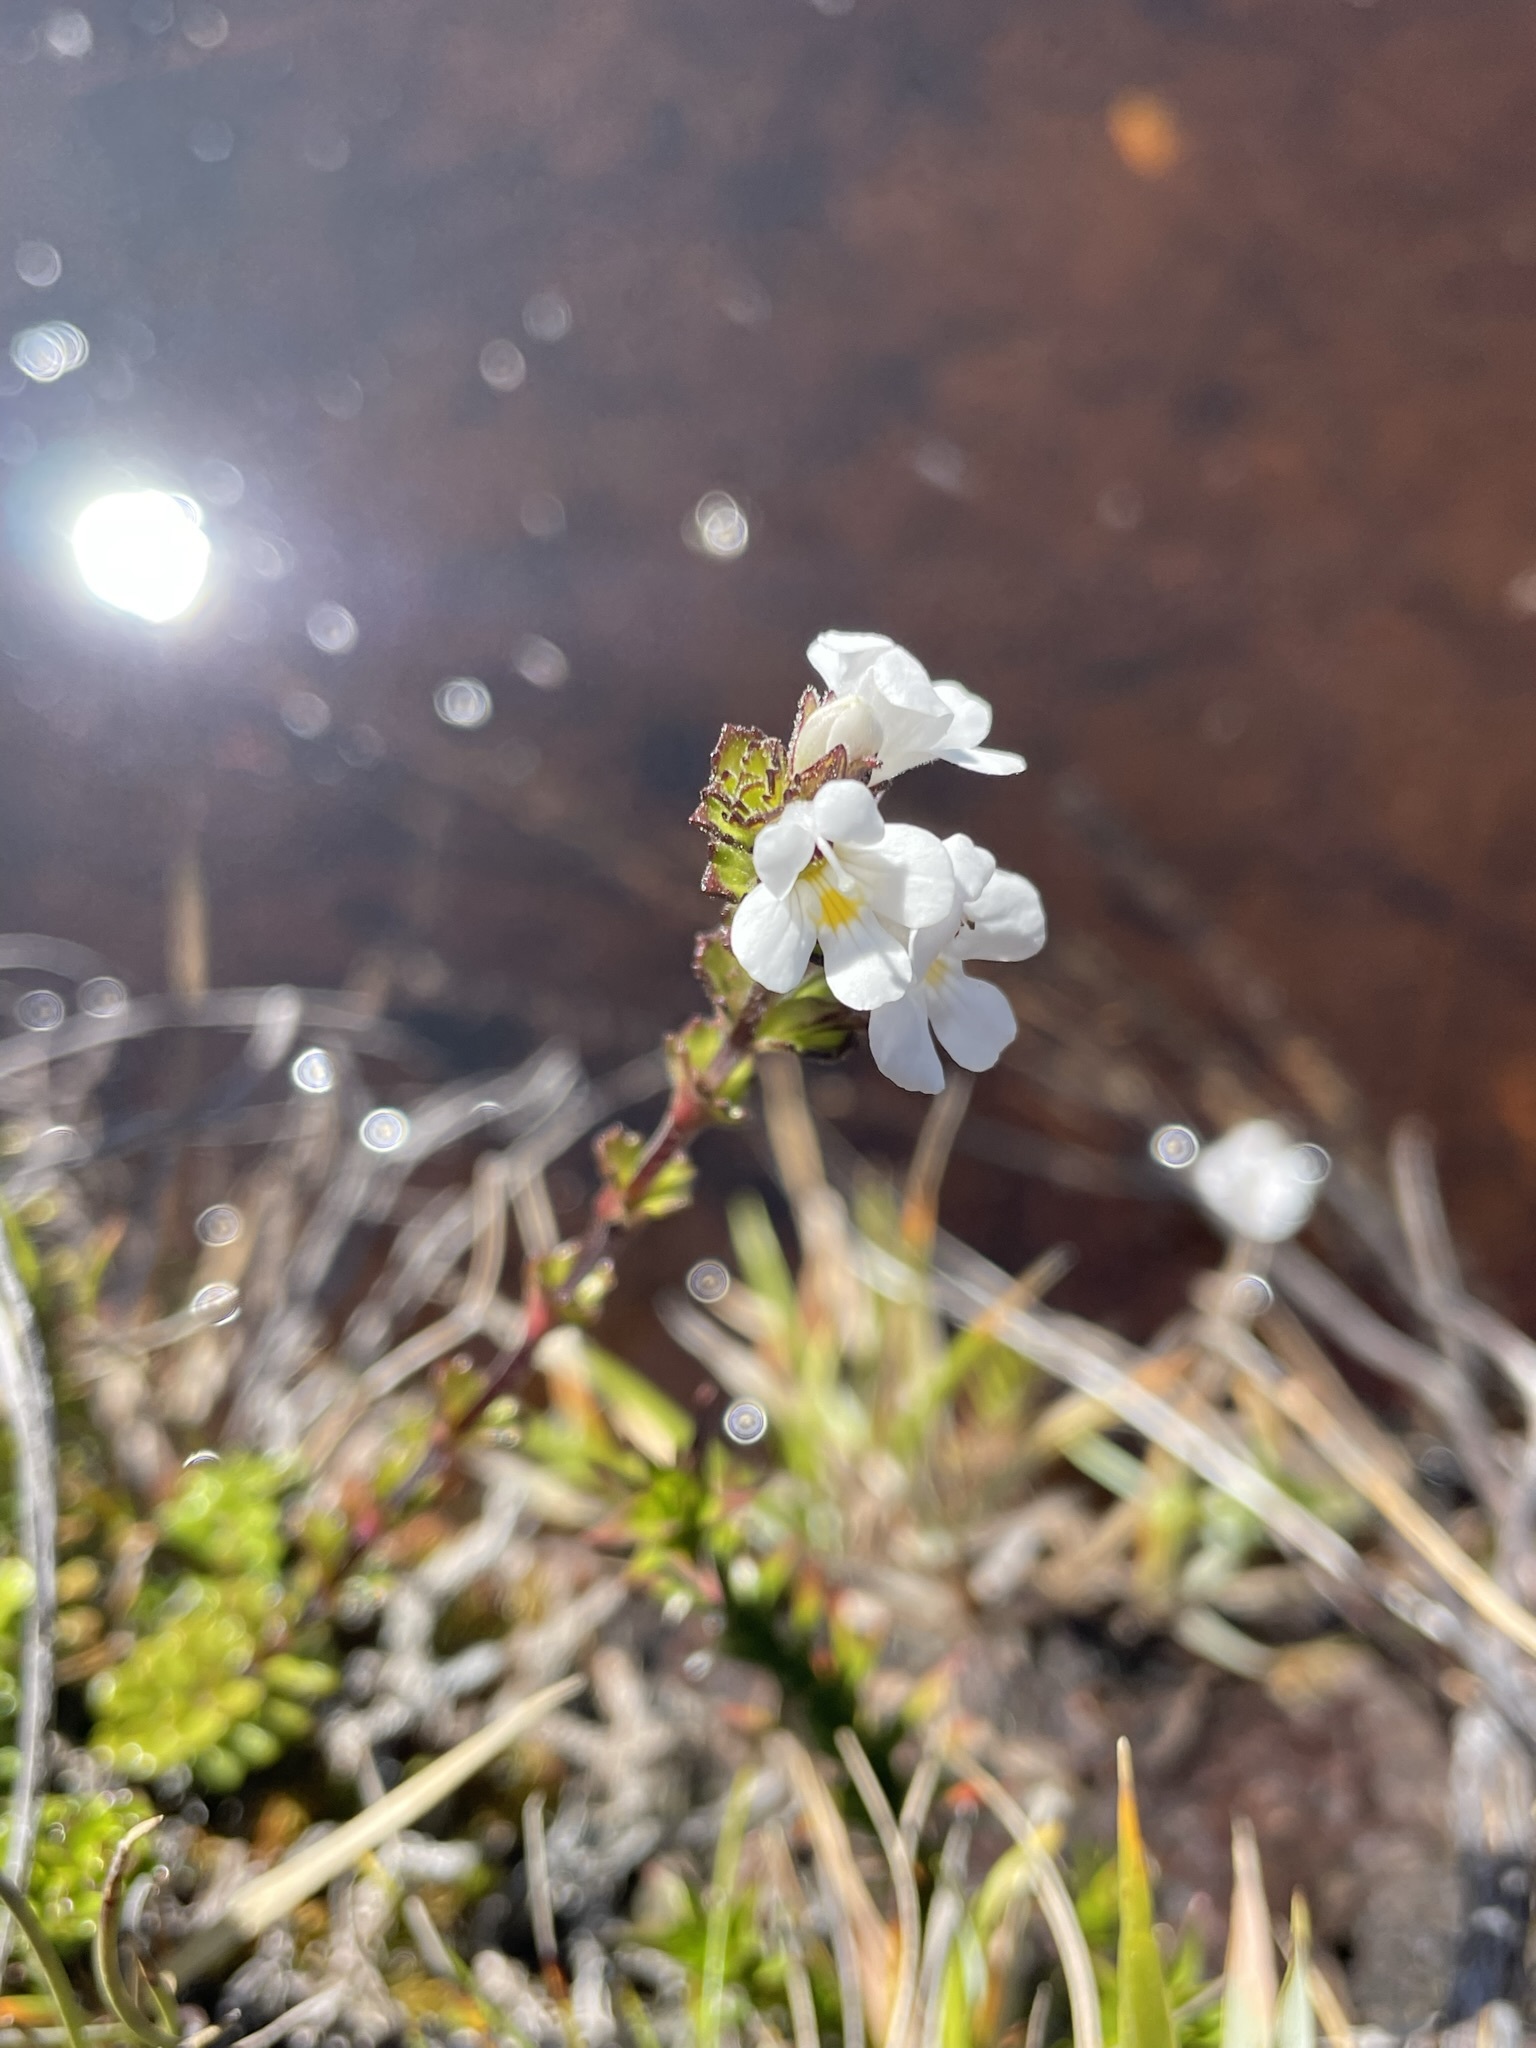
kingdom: Plantae
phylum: Tracheophyta
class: Magnoliopsida
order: Lamiales
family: Orobanchaceae
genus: Euphrasia
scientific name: Euphrasia collina
